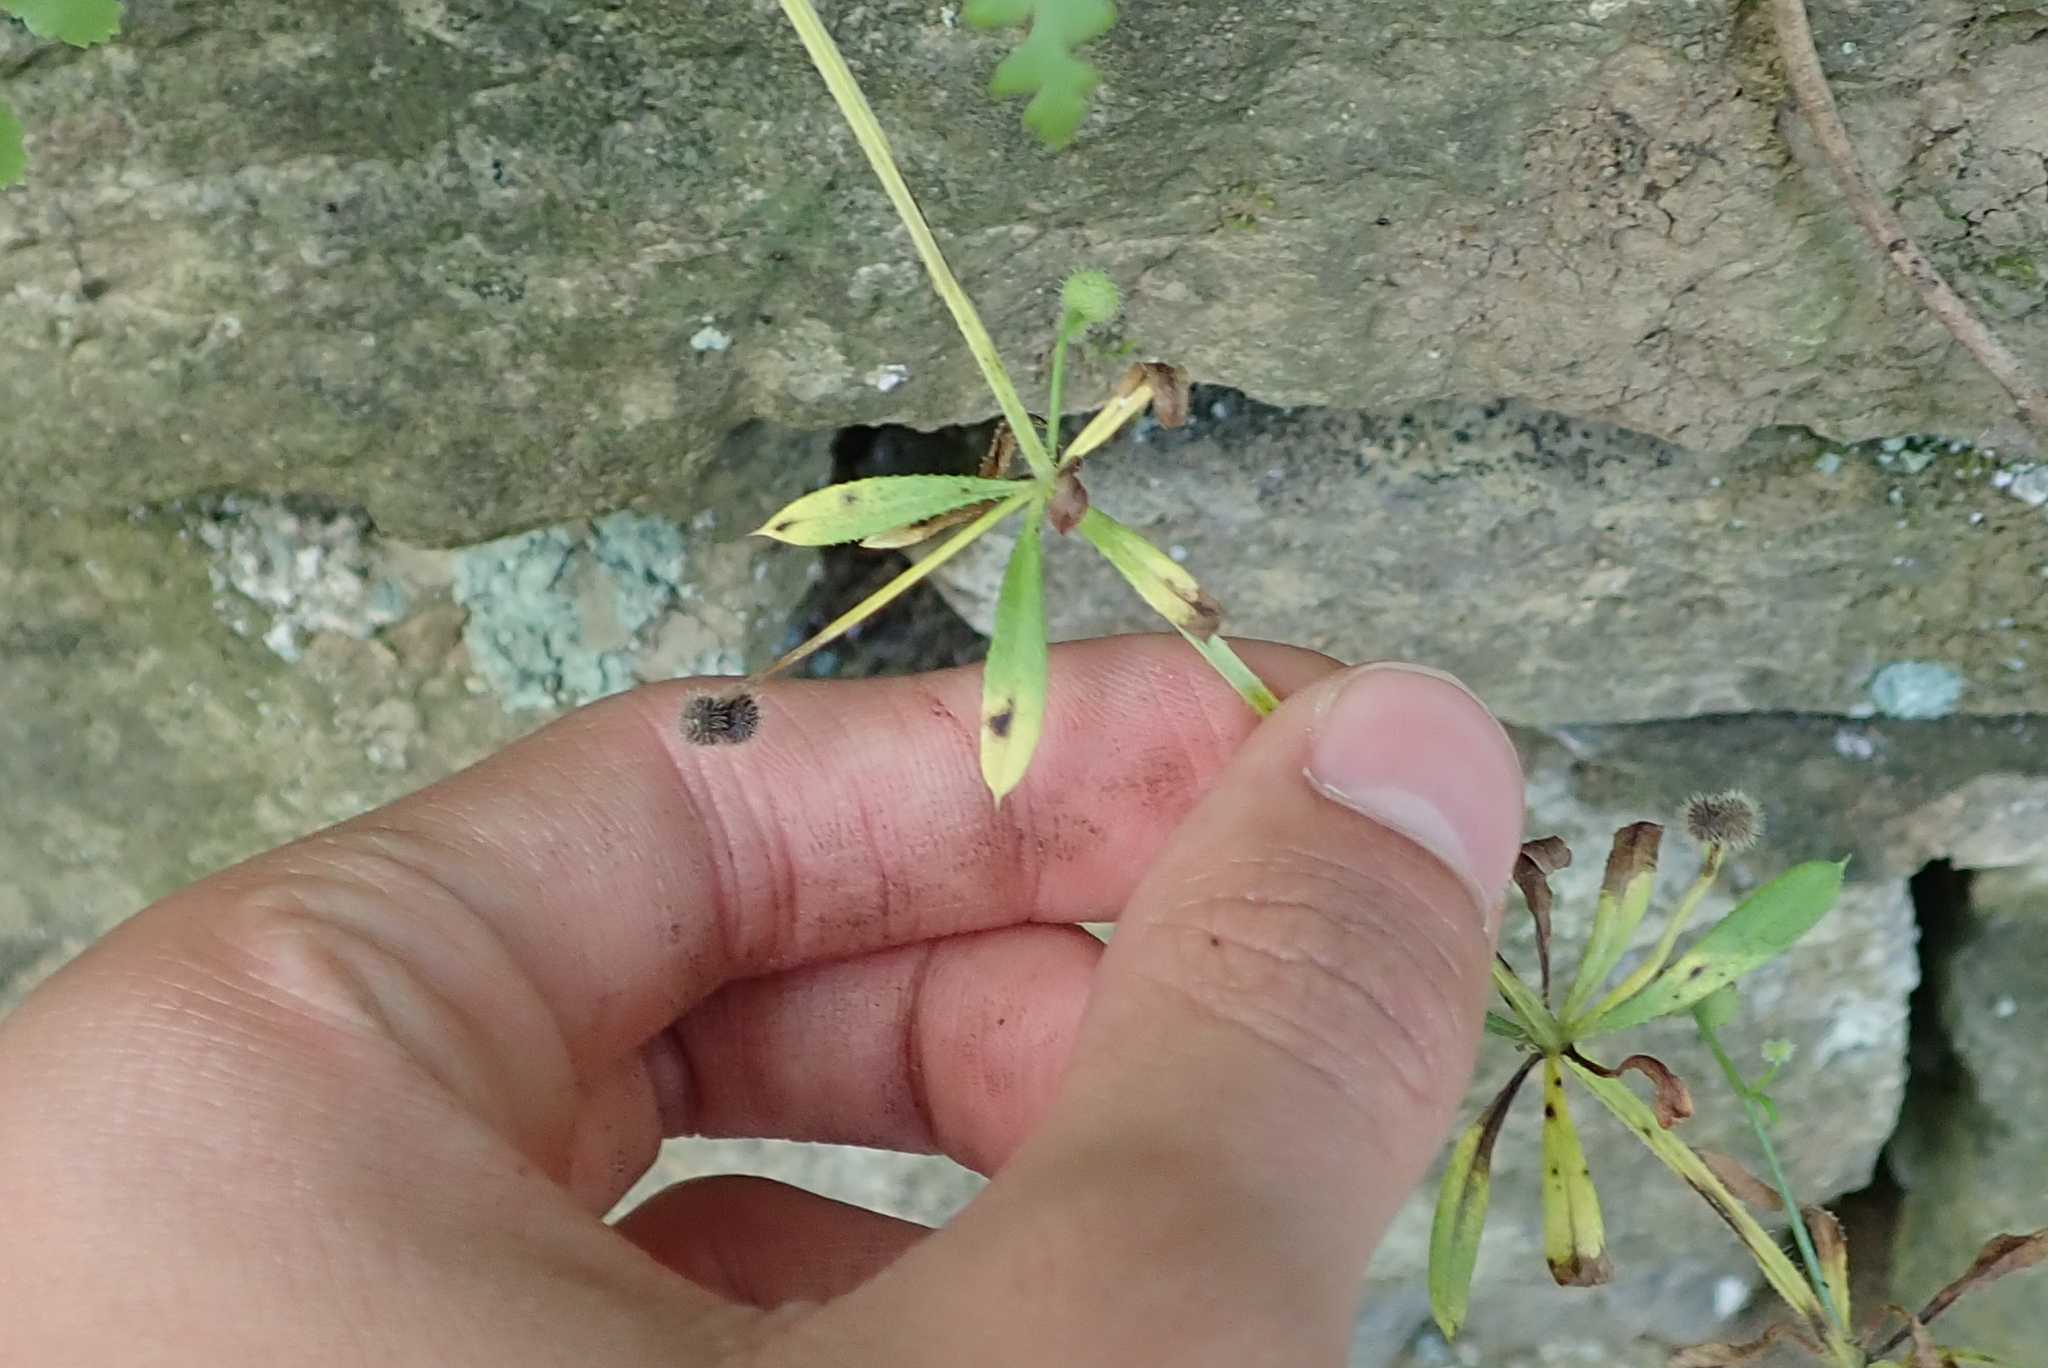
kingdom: Plantae
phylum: Tracheophyta
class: Magnoliopsida
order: Gentianales
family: Rubiaceae
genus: Galium
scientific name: Galium aparine
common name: Cleavers
